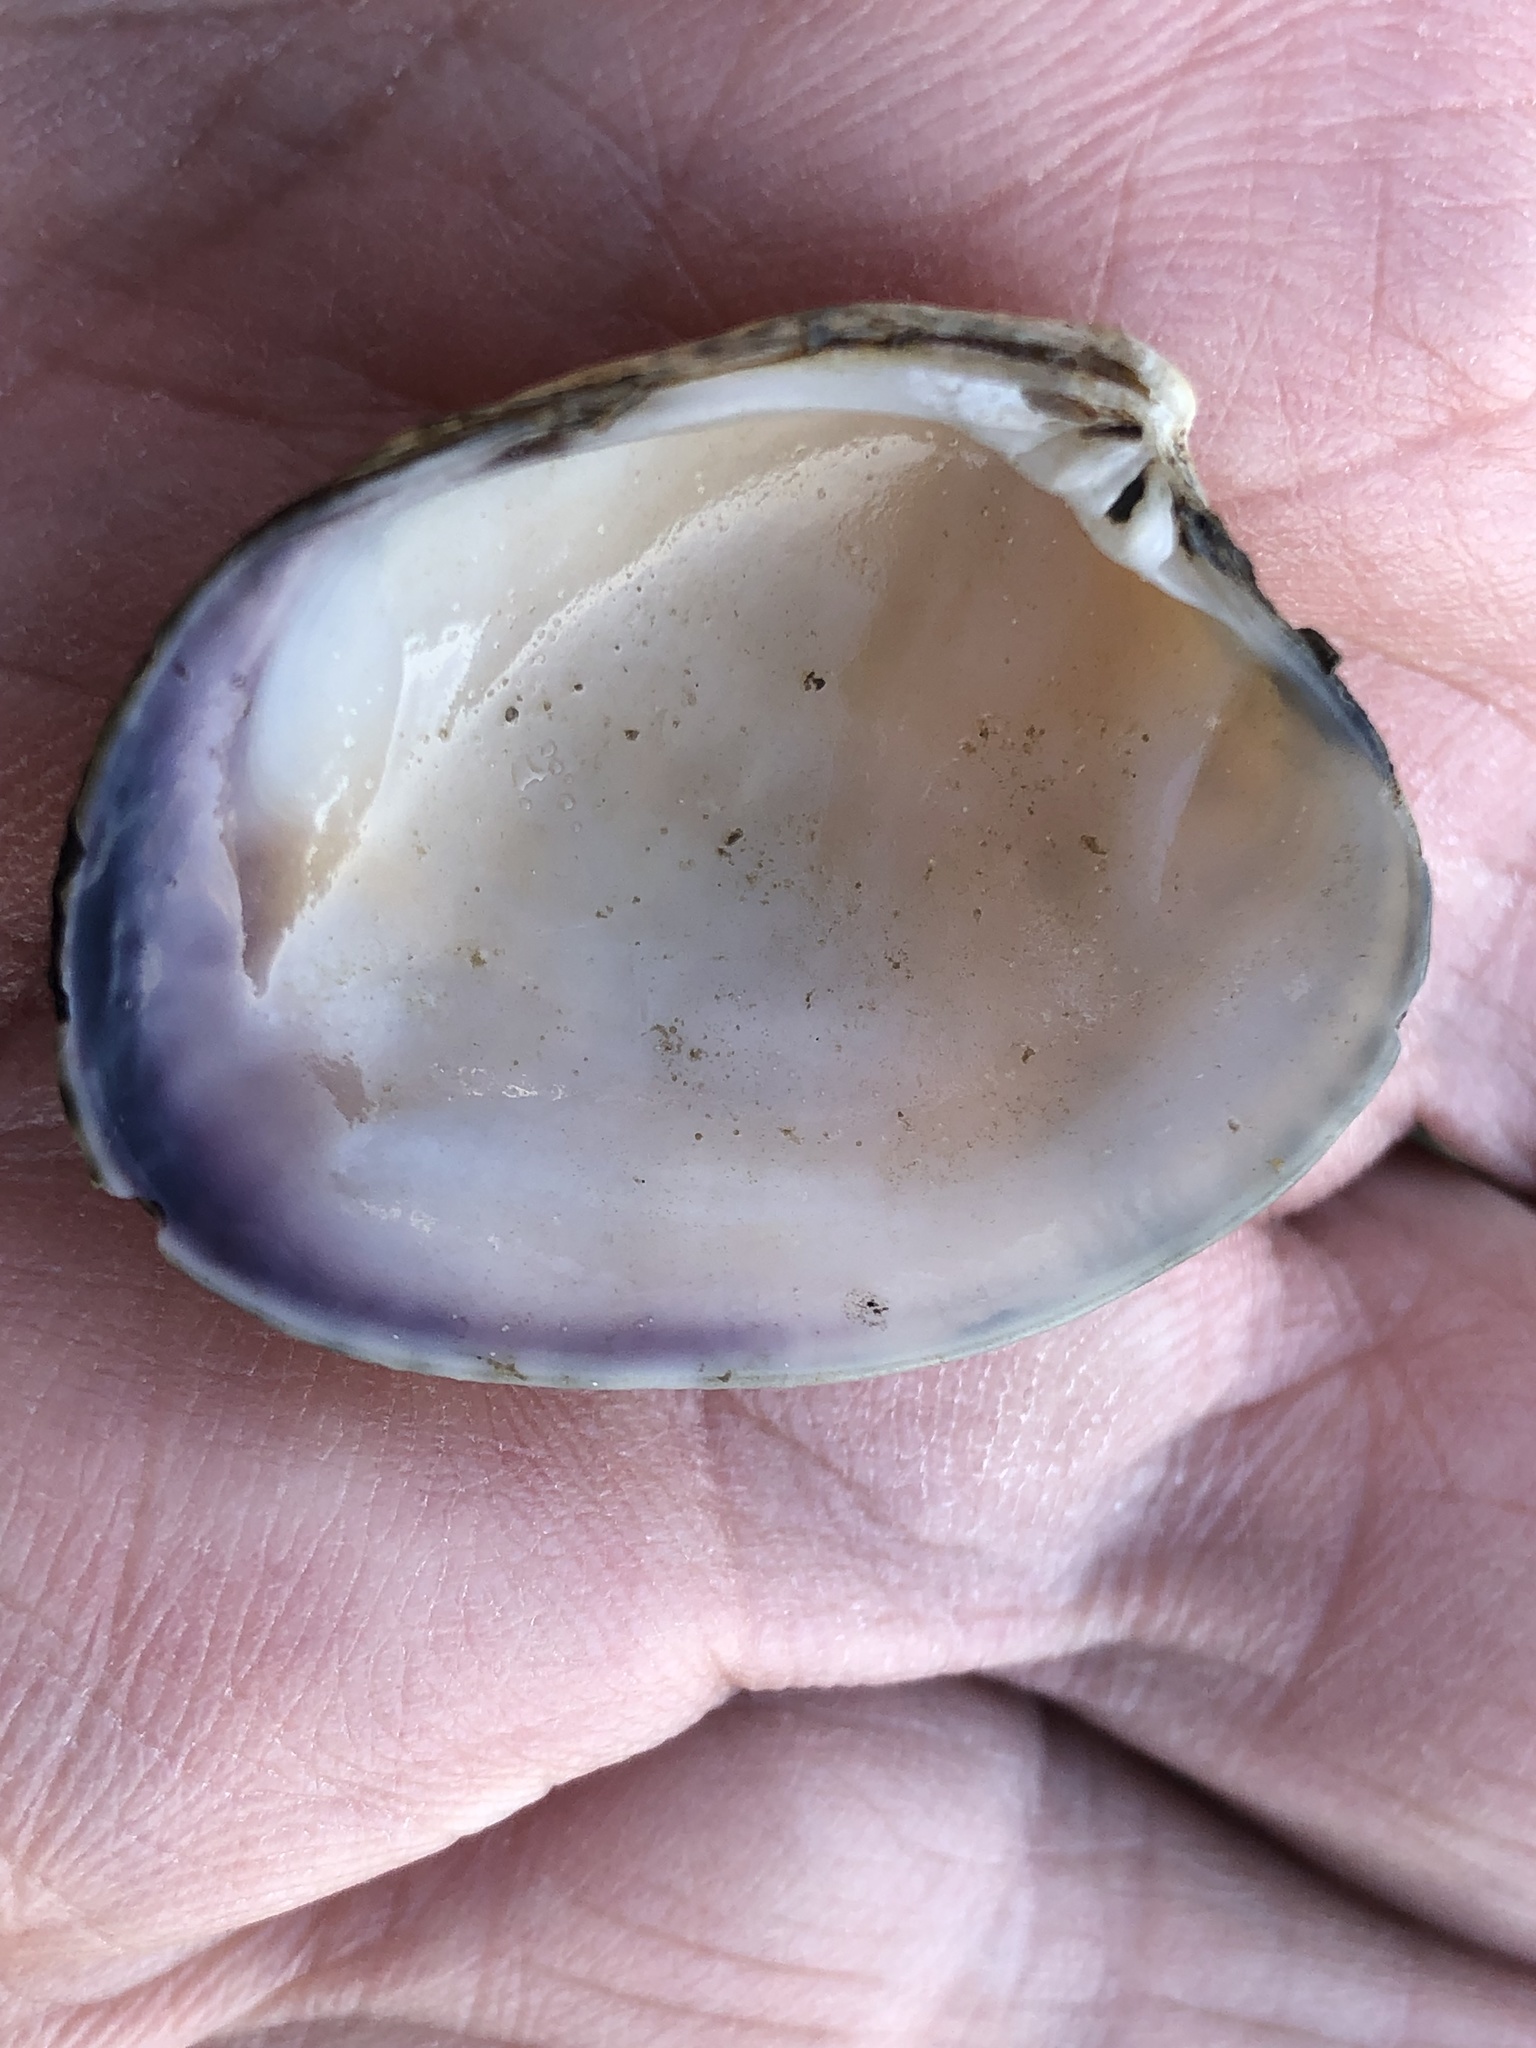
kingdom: Animalia
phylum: Mollusca
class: Bivalvia
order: Venerida
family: Veneridae
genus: Ruditapes
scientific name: Ruditapes philippinarum
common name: Manila clam
